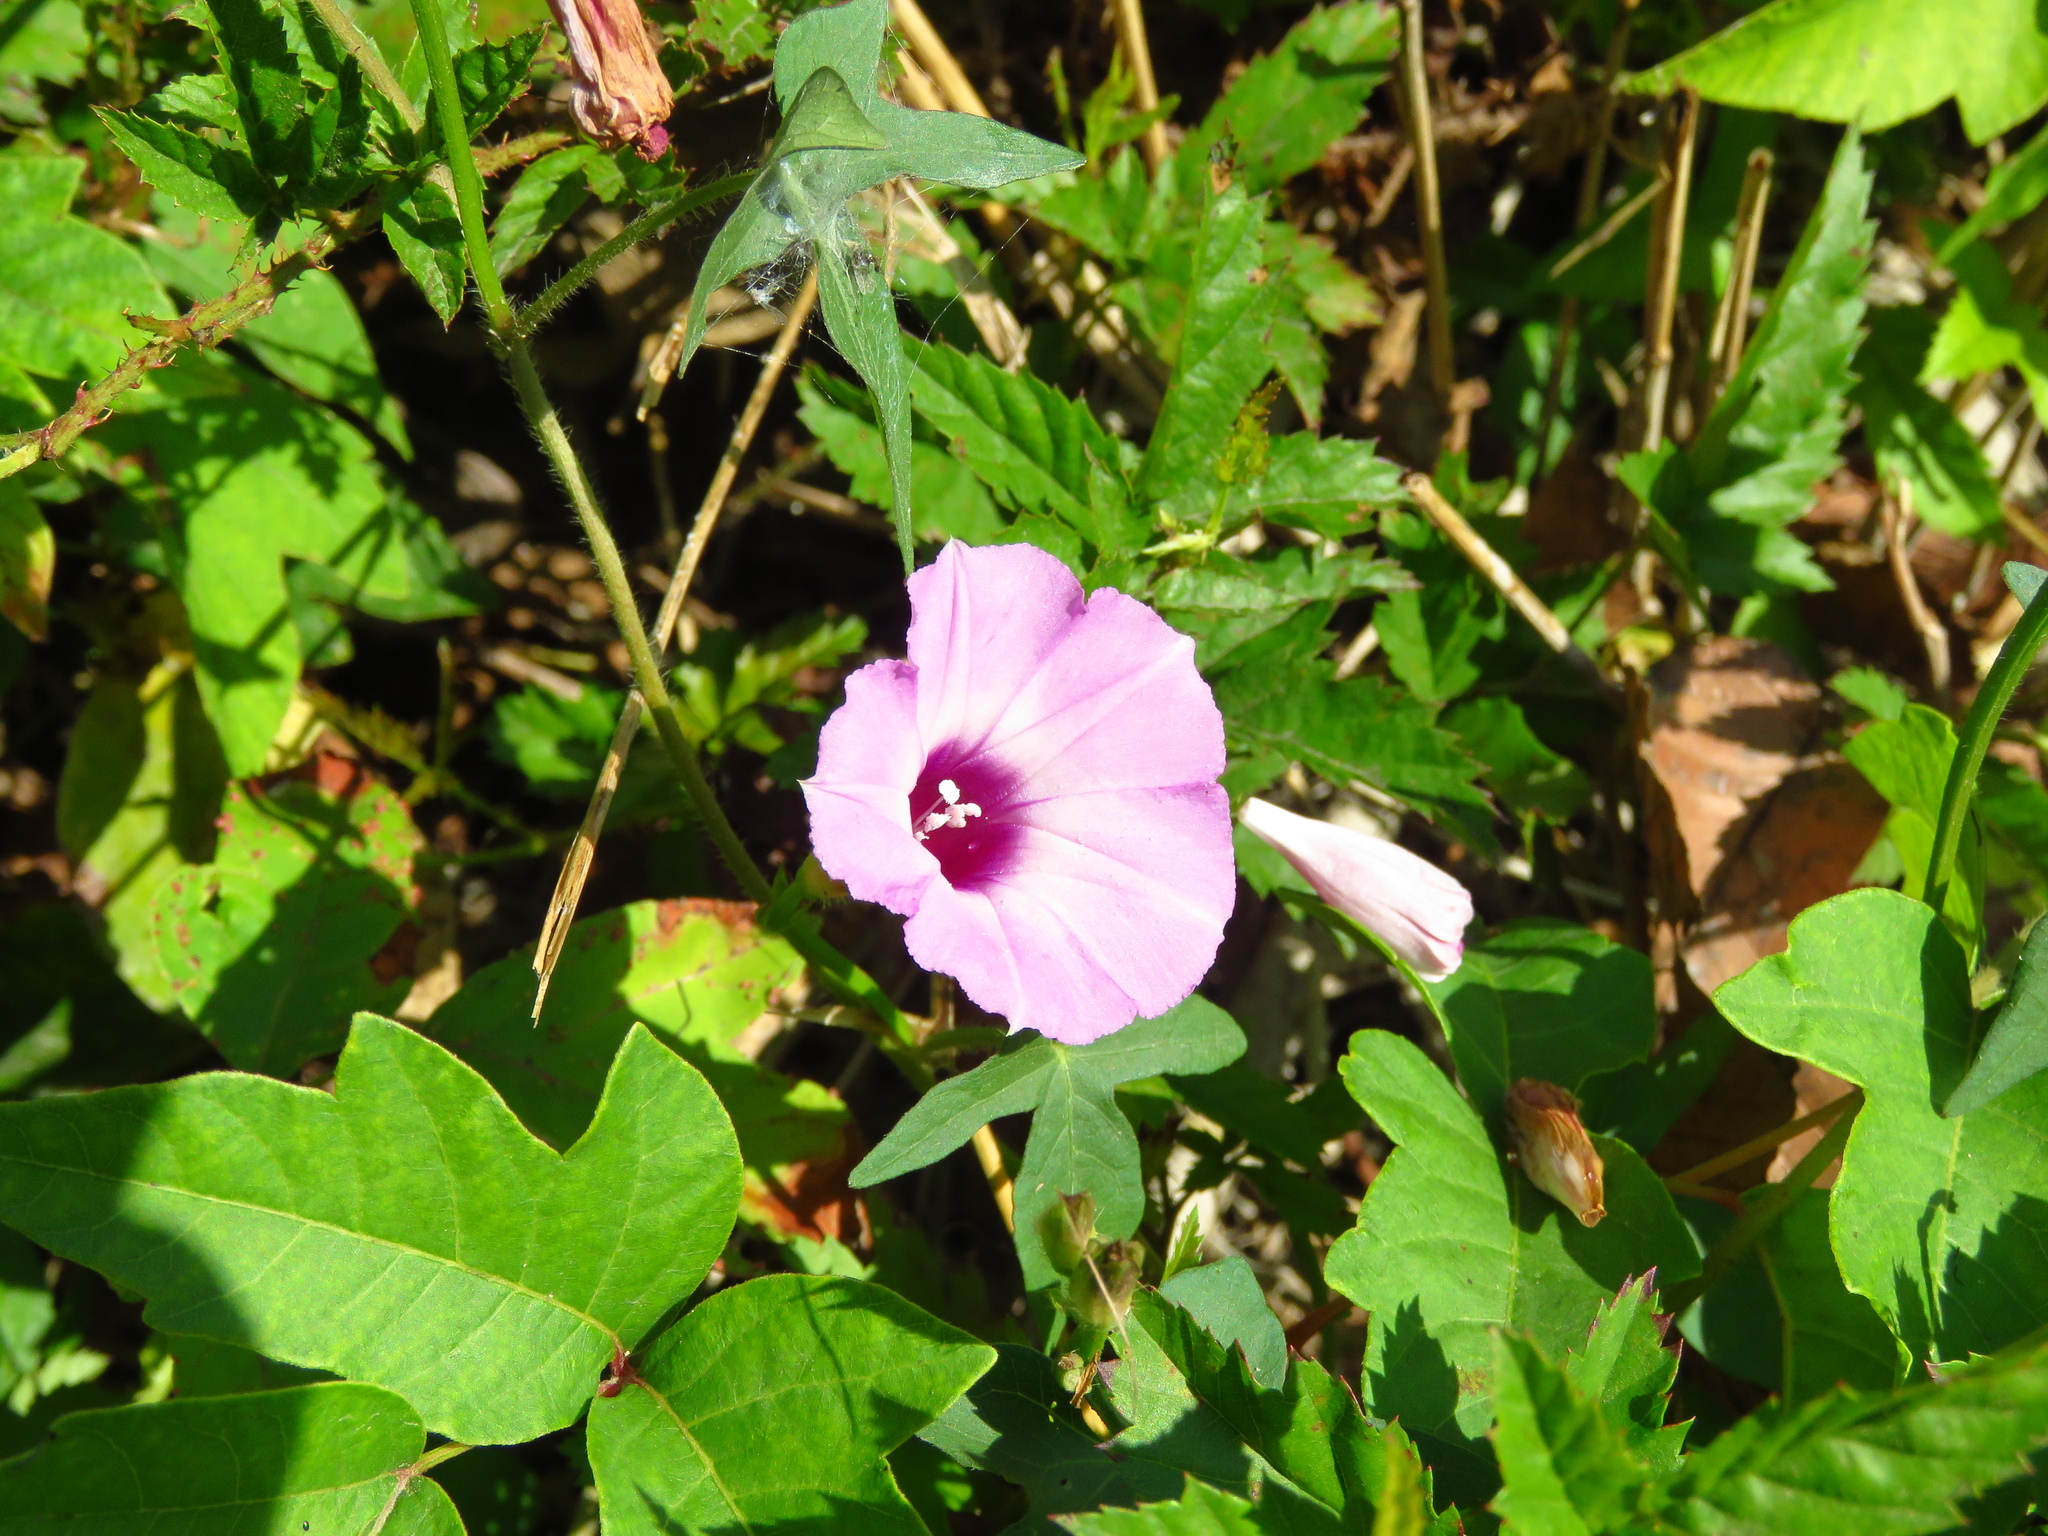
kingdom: Plantae
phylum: Tracheophyta
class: Magnoliopsida
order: Solanales
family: Convolvulaceae
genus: Ipomoea
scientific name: Ipomoea cordatotriloba
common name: Cotton morning glory
